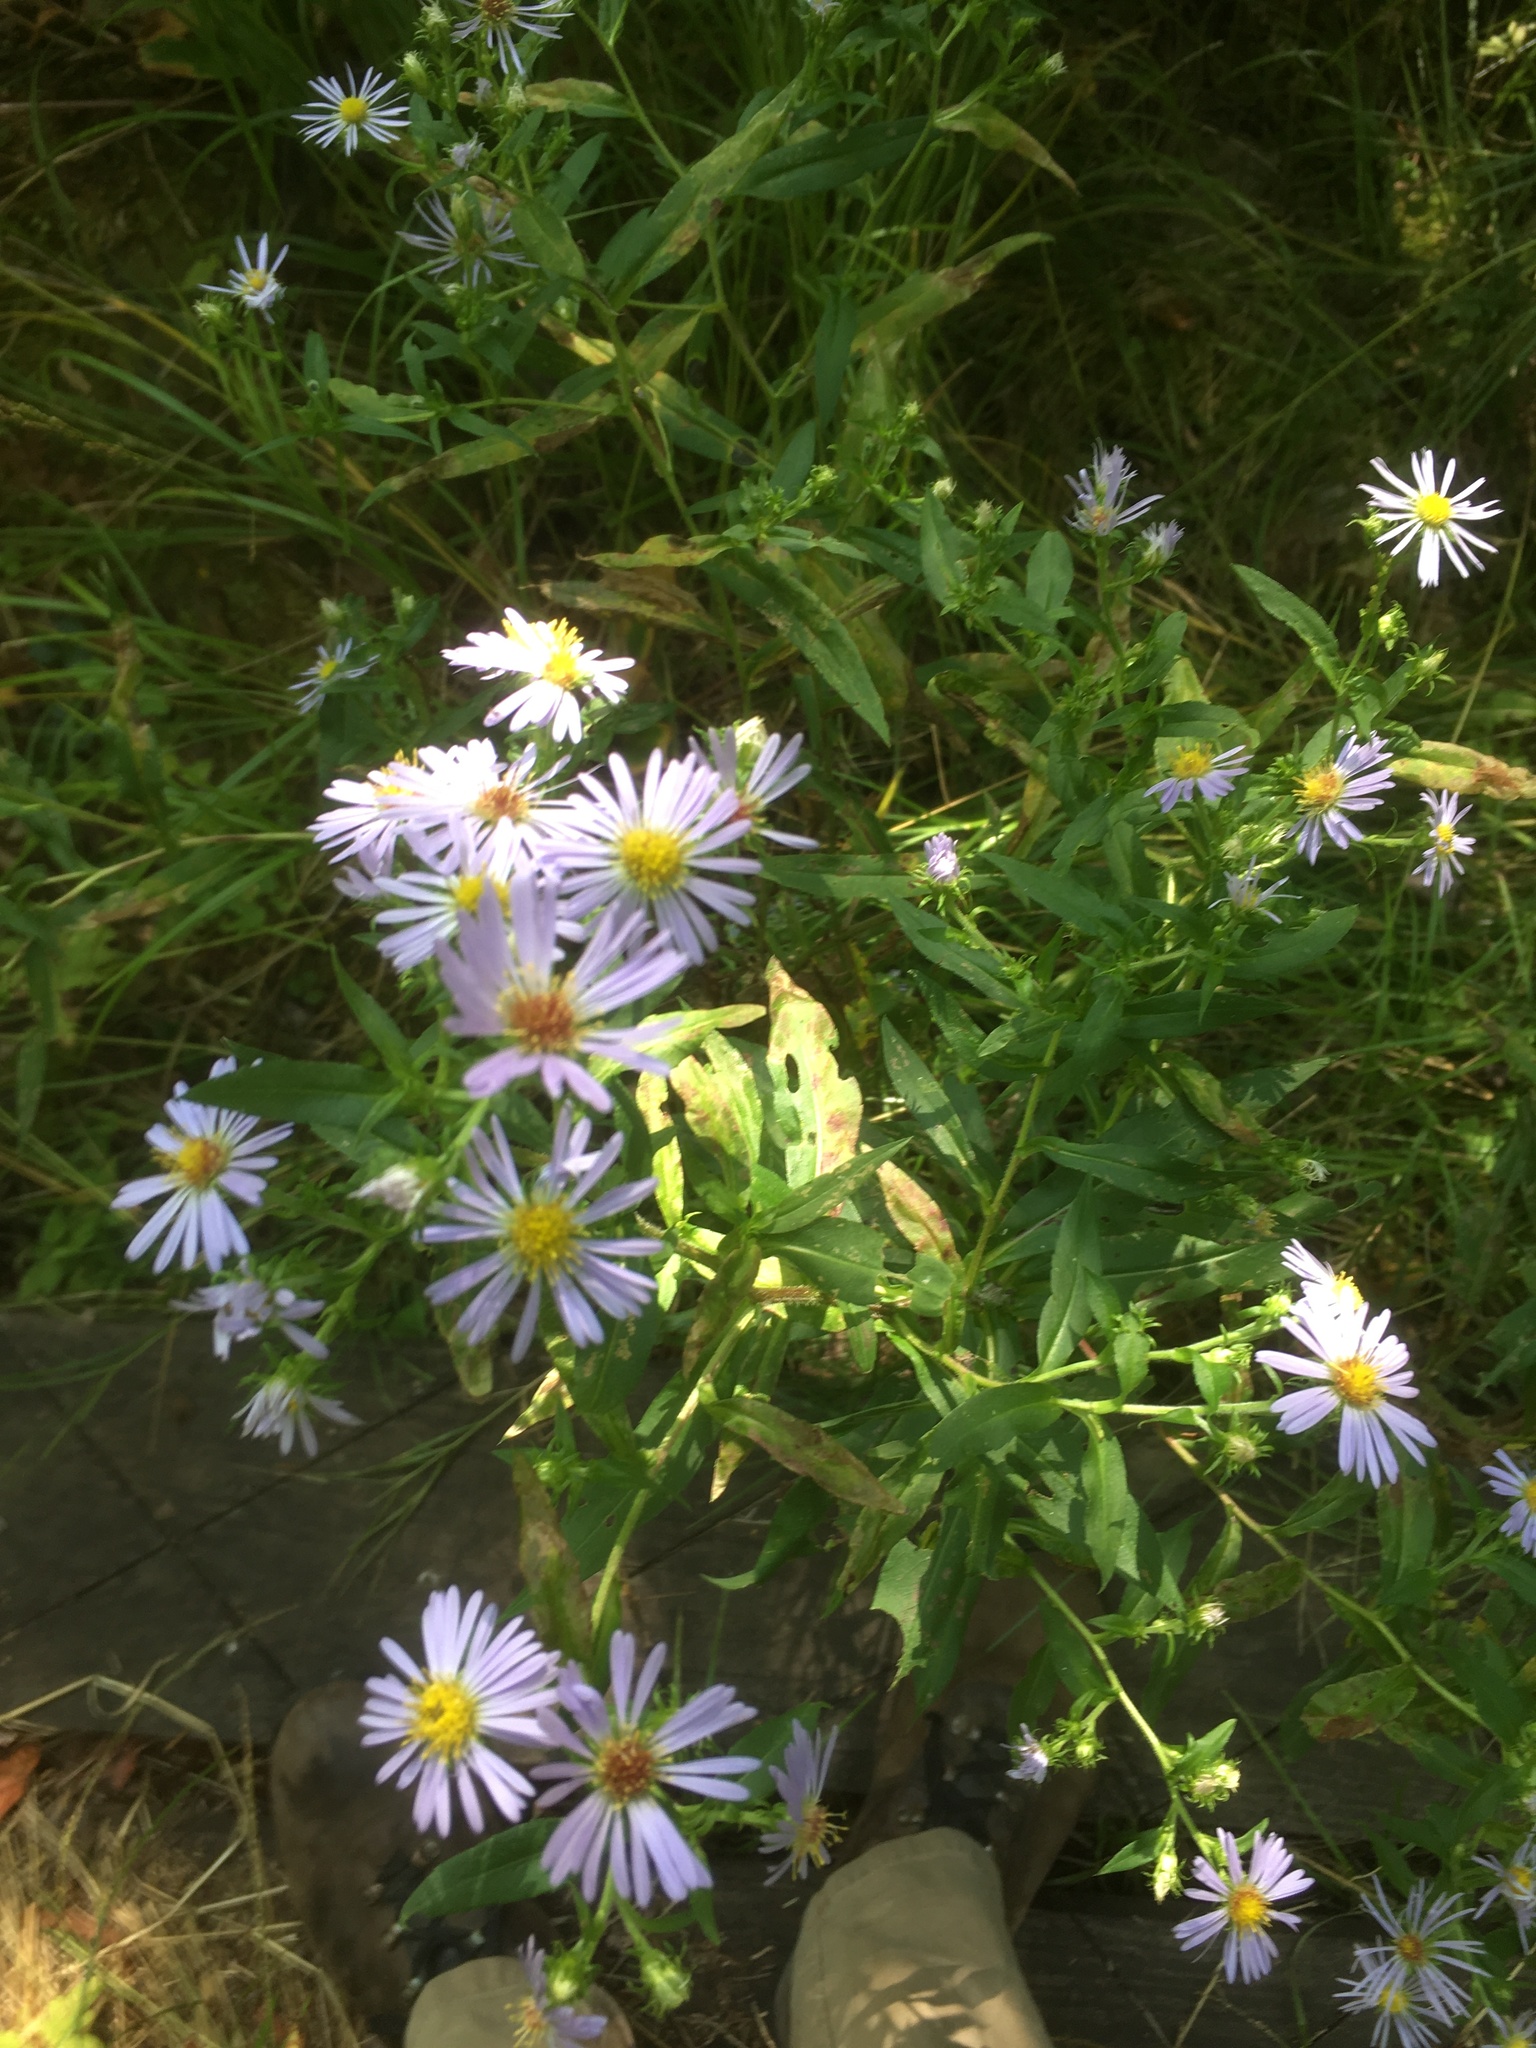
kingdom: Plantae
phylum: Tracheophyta
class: Magnoliopsida
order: Asterales
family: Asteraceae
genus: Symphyotrichum
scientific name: Symphyotrichum puniceum
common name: Bog aster
